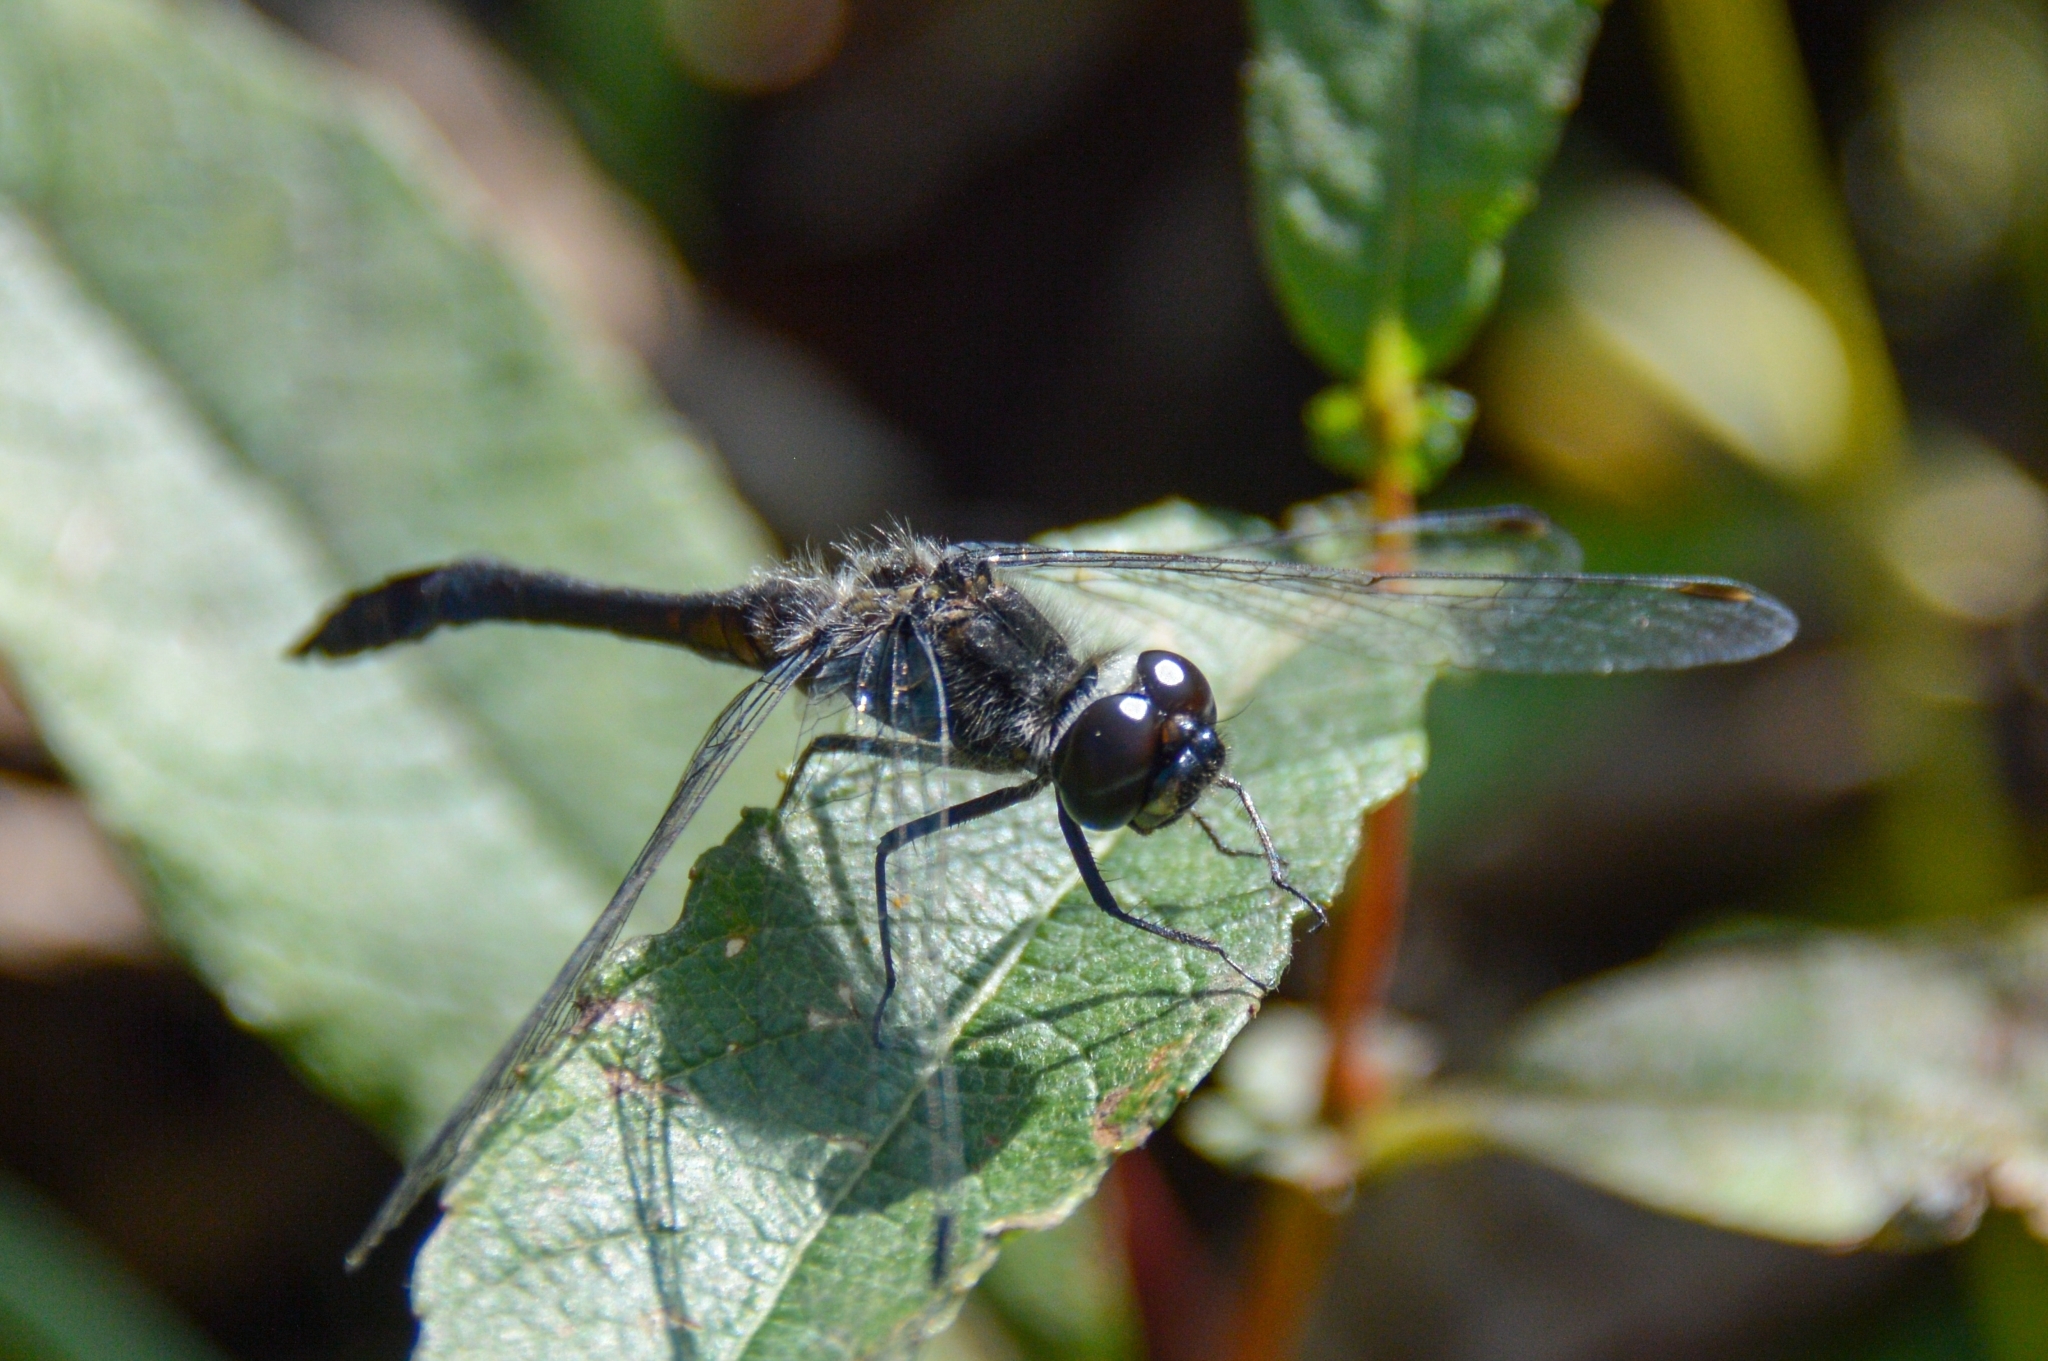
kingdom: Animalia
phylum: Arthropoda
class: Insecta
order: Odonata
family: Libellulidae
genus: Sympetrum
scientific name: Sympetrum danae
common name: Black darter
